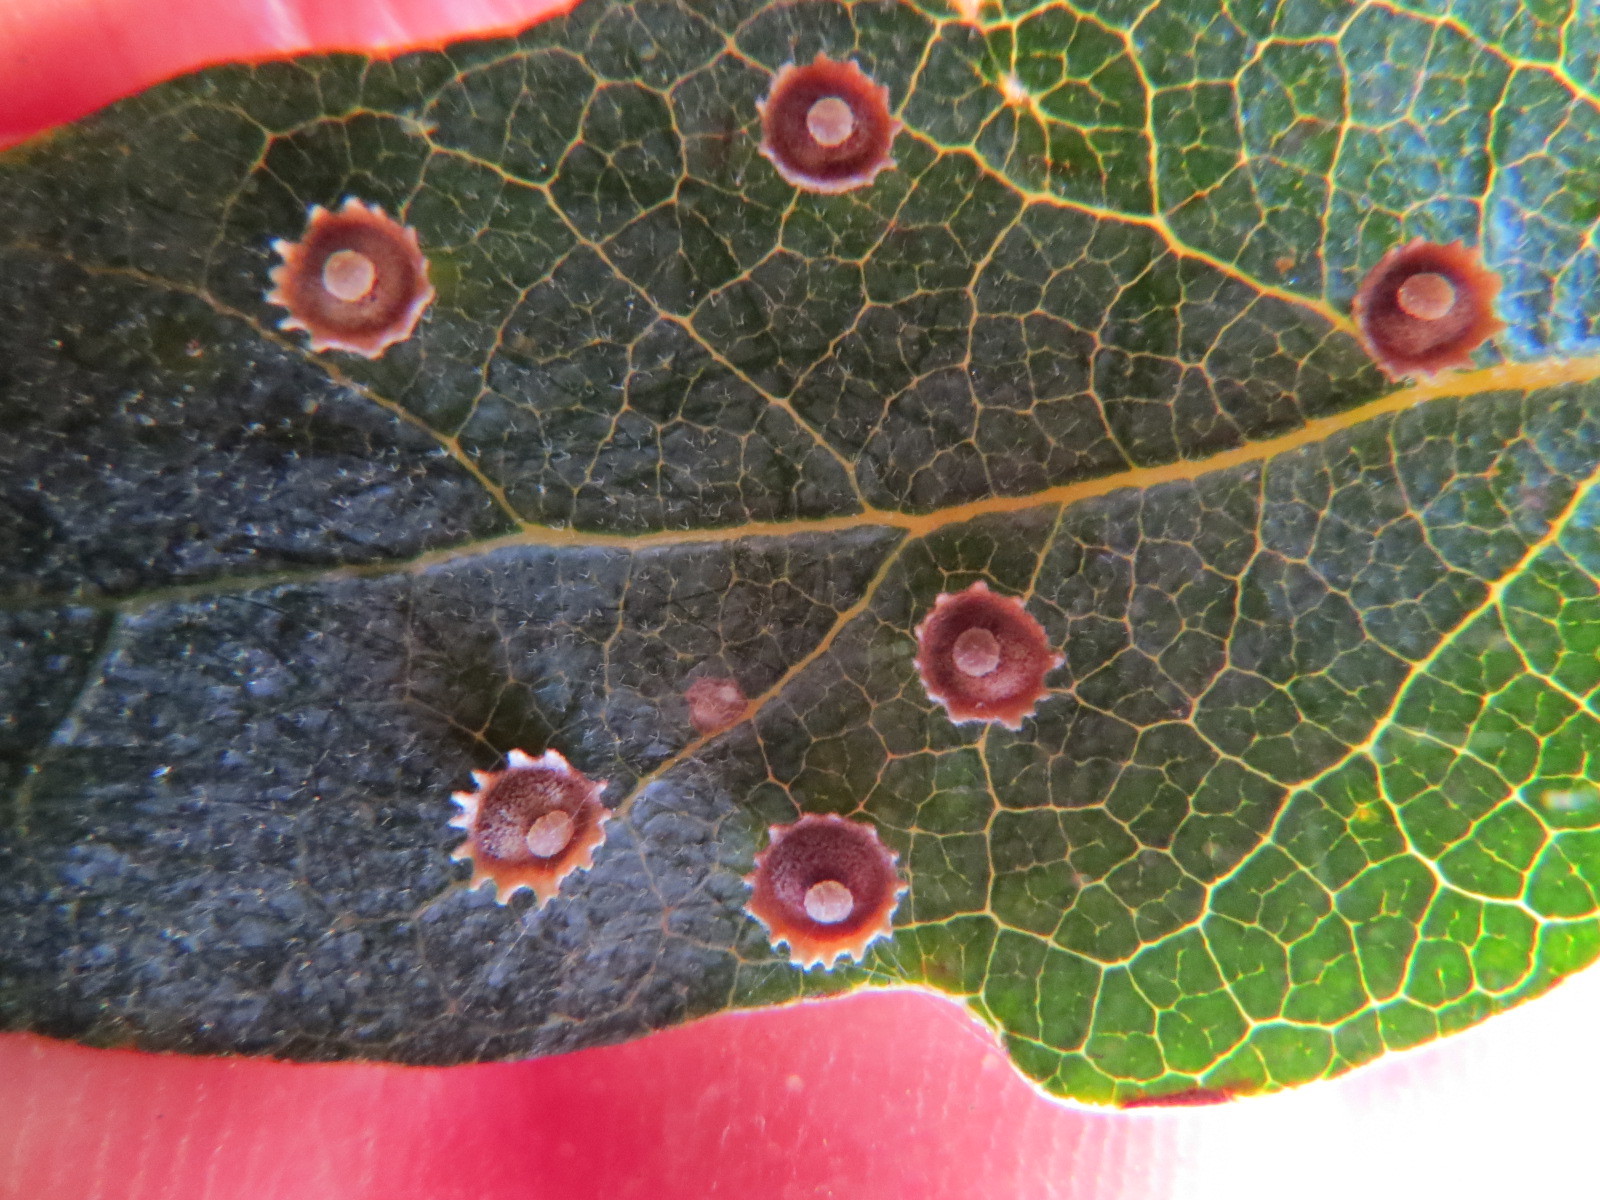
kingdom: Animalia
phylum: Arthropoda
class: Insecta
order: Hymenoptera
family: Cynipidae
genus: Andricus
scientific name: Andricus
